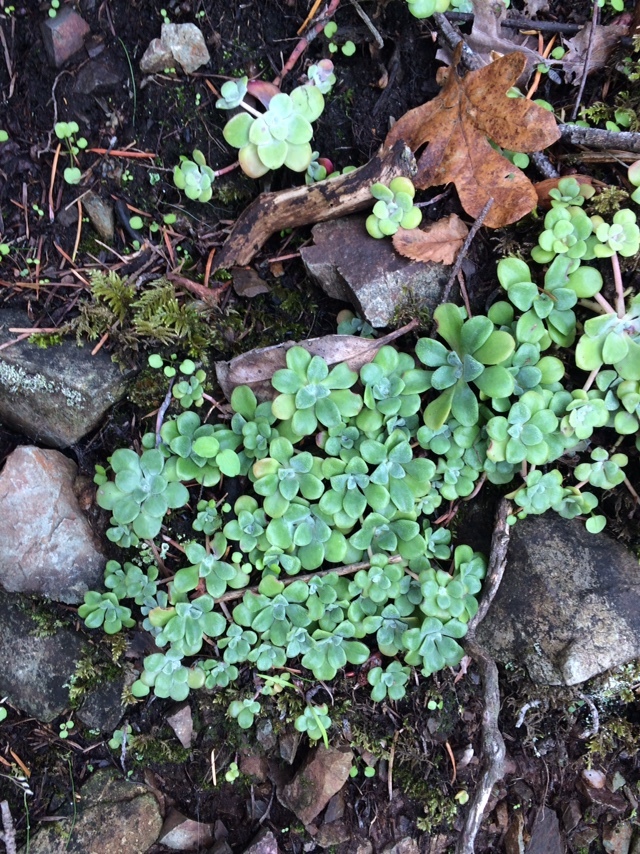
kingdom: Plantae
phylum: Tracheophyta
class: Magnoliopsida
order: Saxifragales
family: Crassulaceae
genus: Sedum
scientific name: Sedum spathulifolium
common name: Colorado stonecrop
